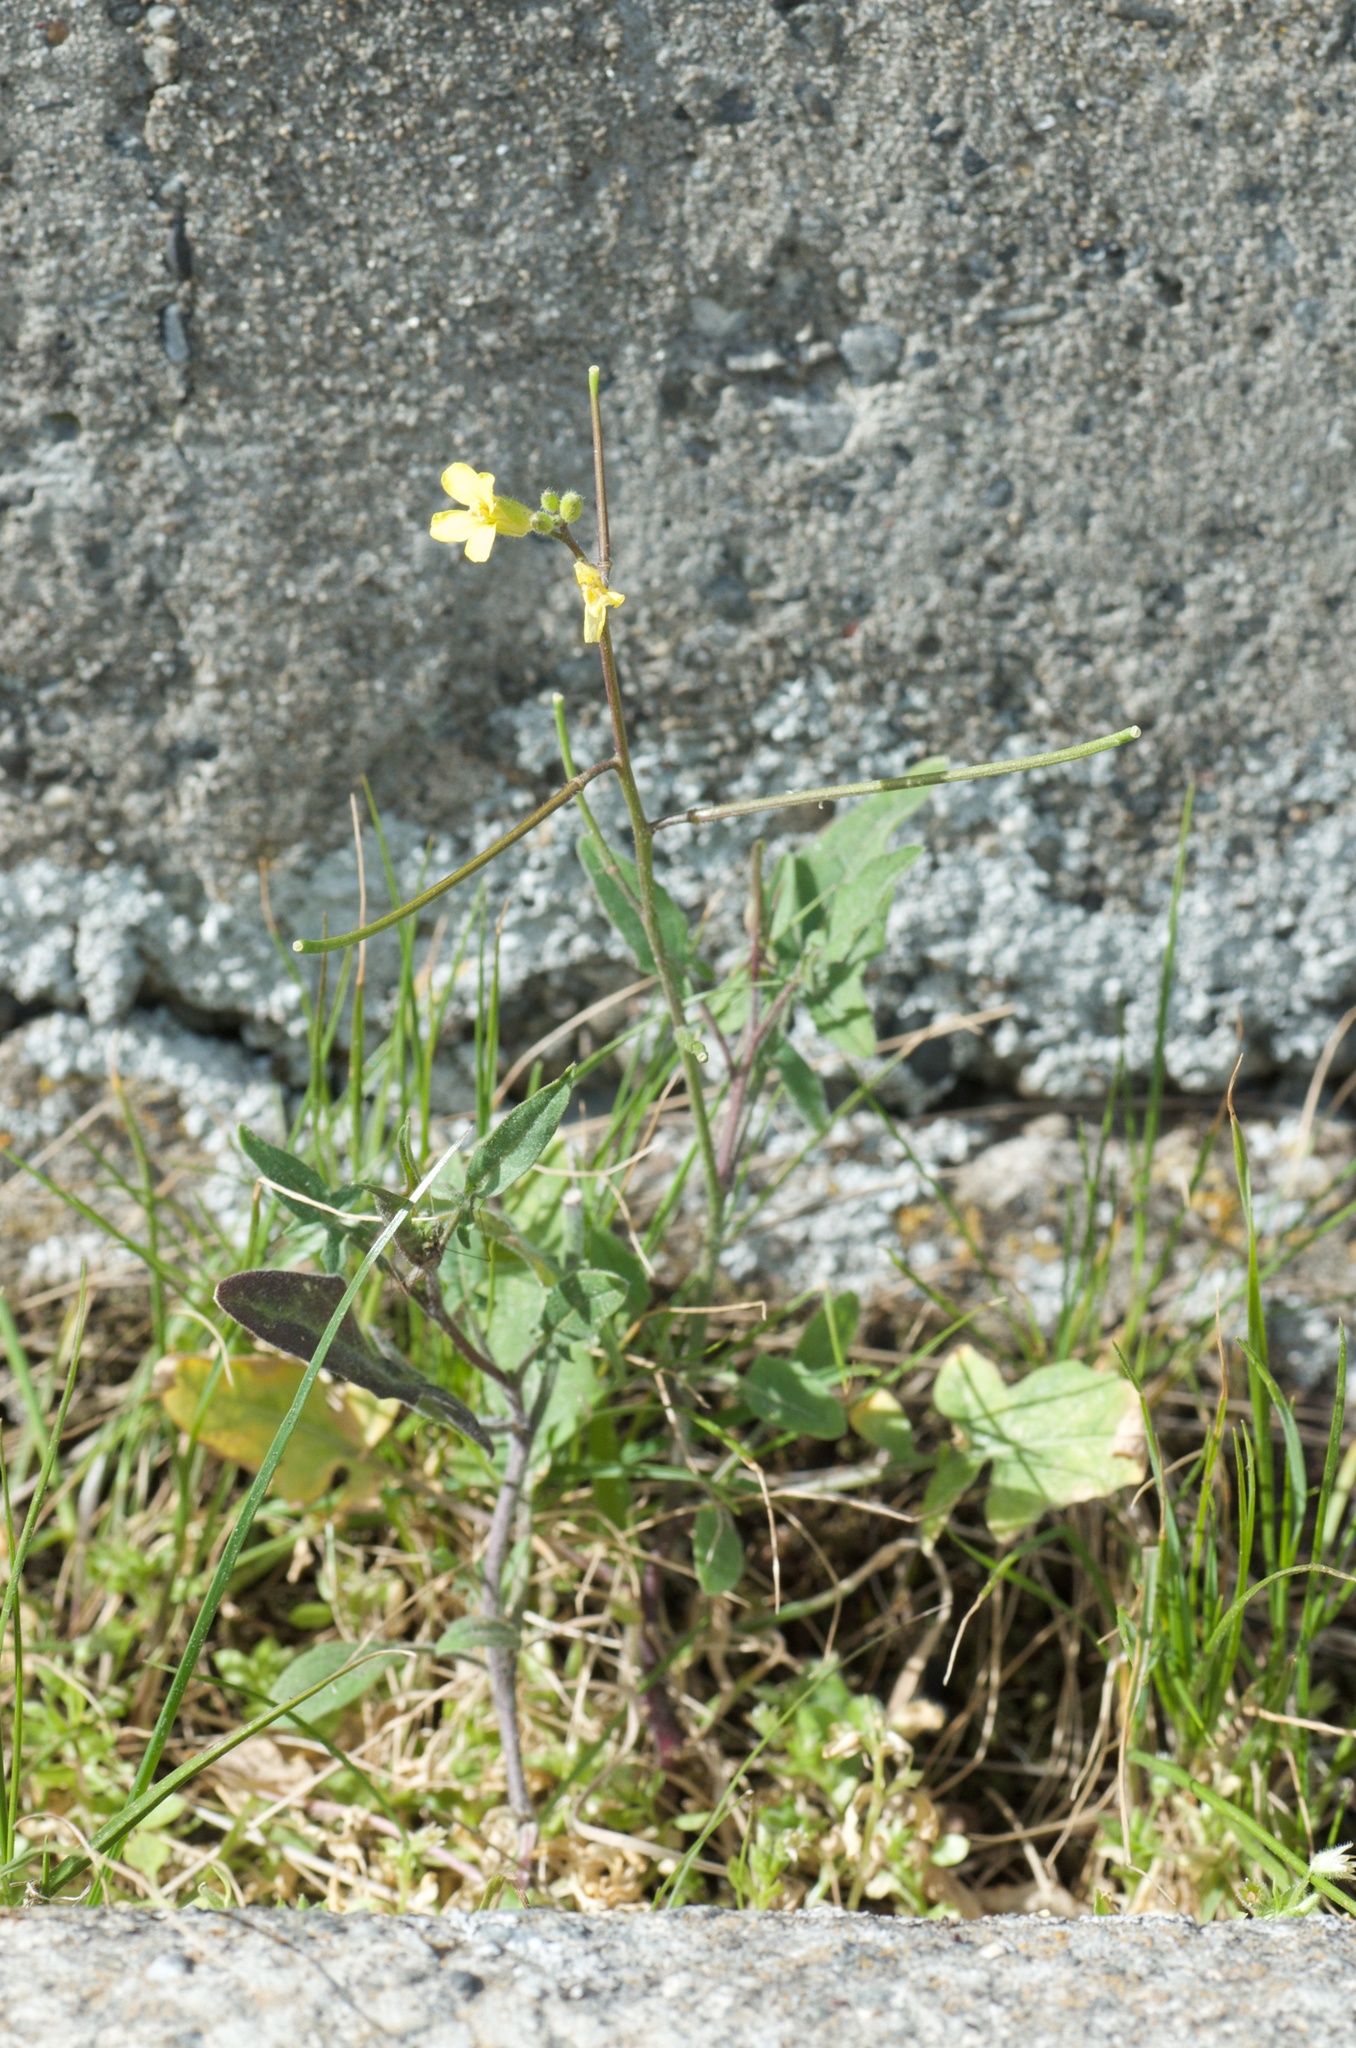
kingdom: Plantae
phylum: Tracheophyta
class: Magnoliopsida
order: Brassicales
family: Brassicaceae
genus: Sisymbrium
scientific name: Sisymbrium orientale
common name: Eastern rocket
